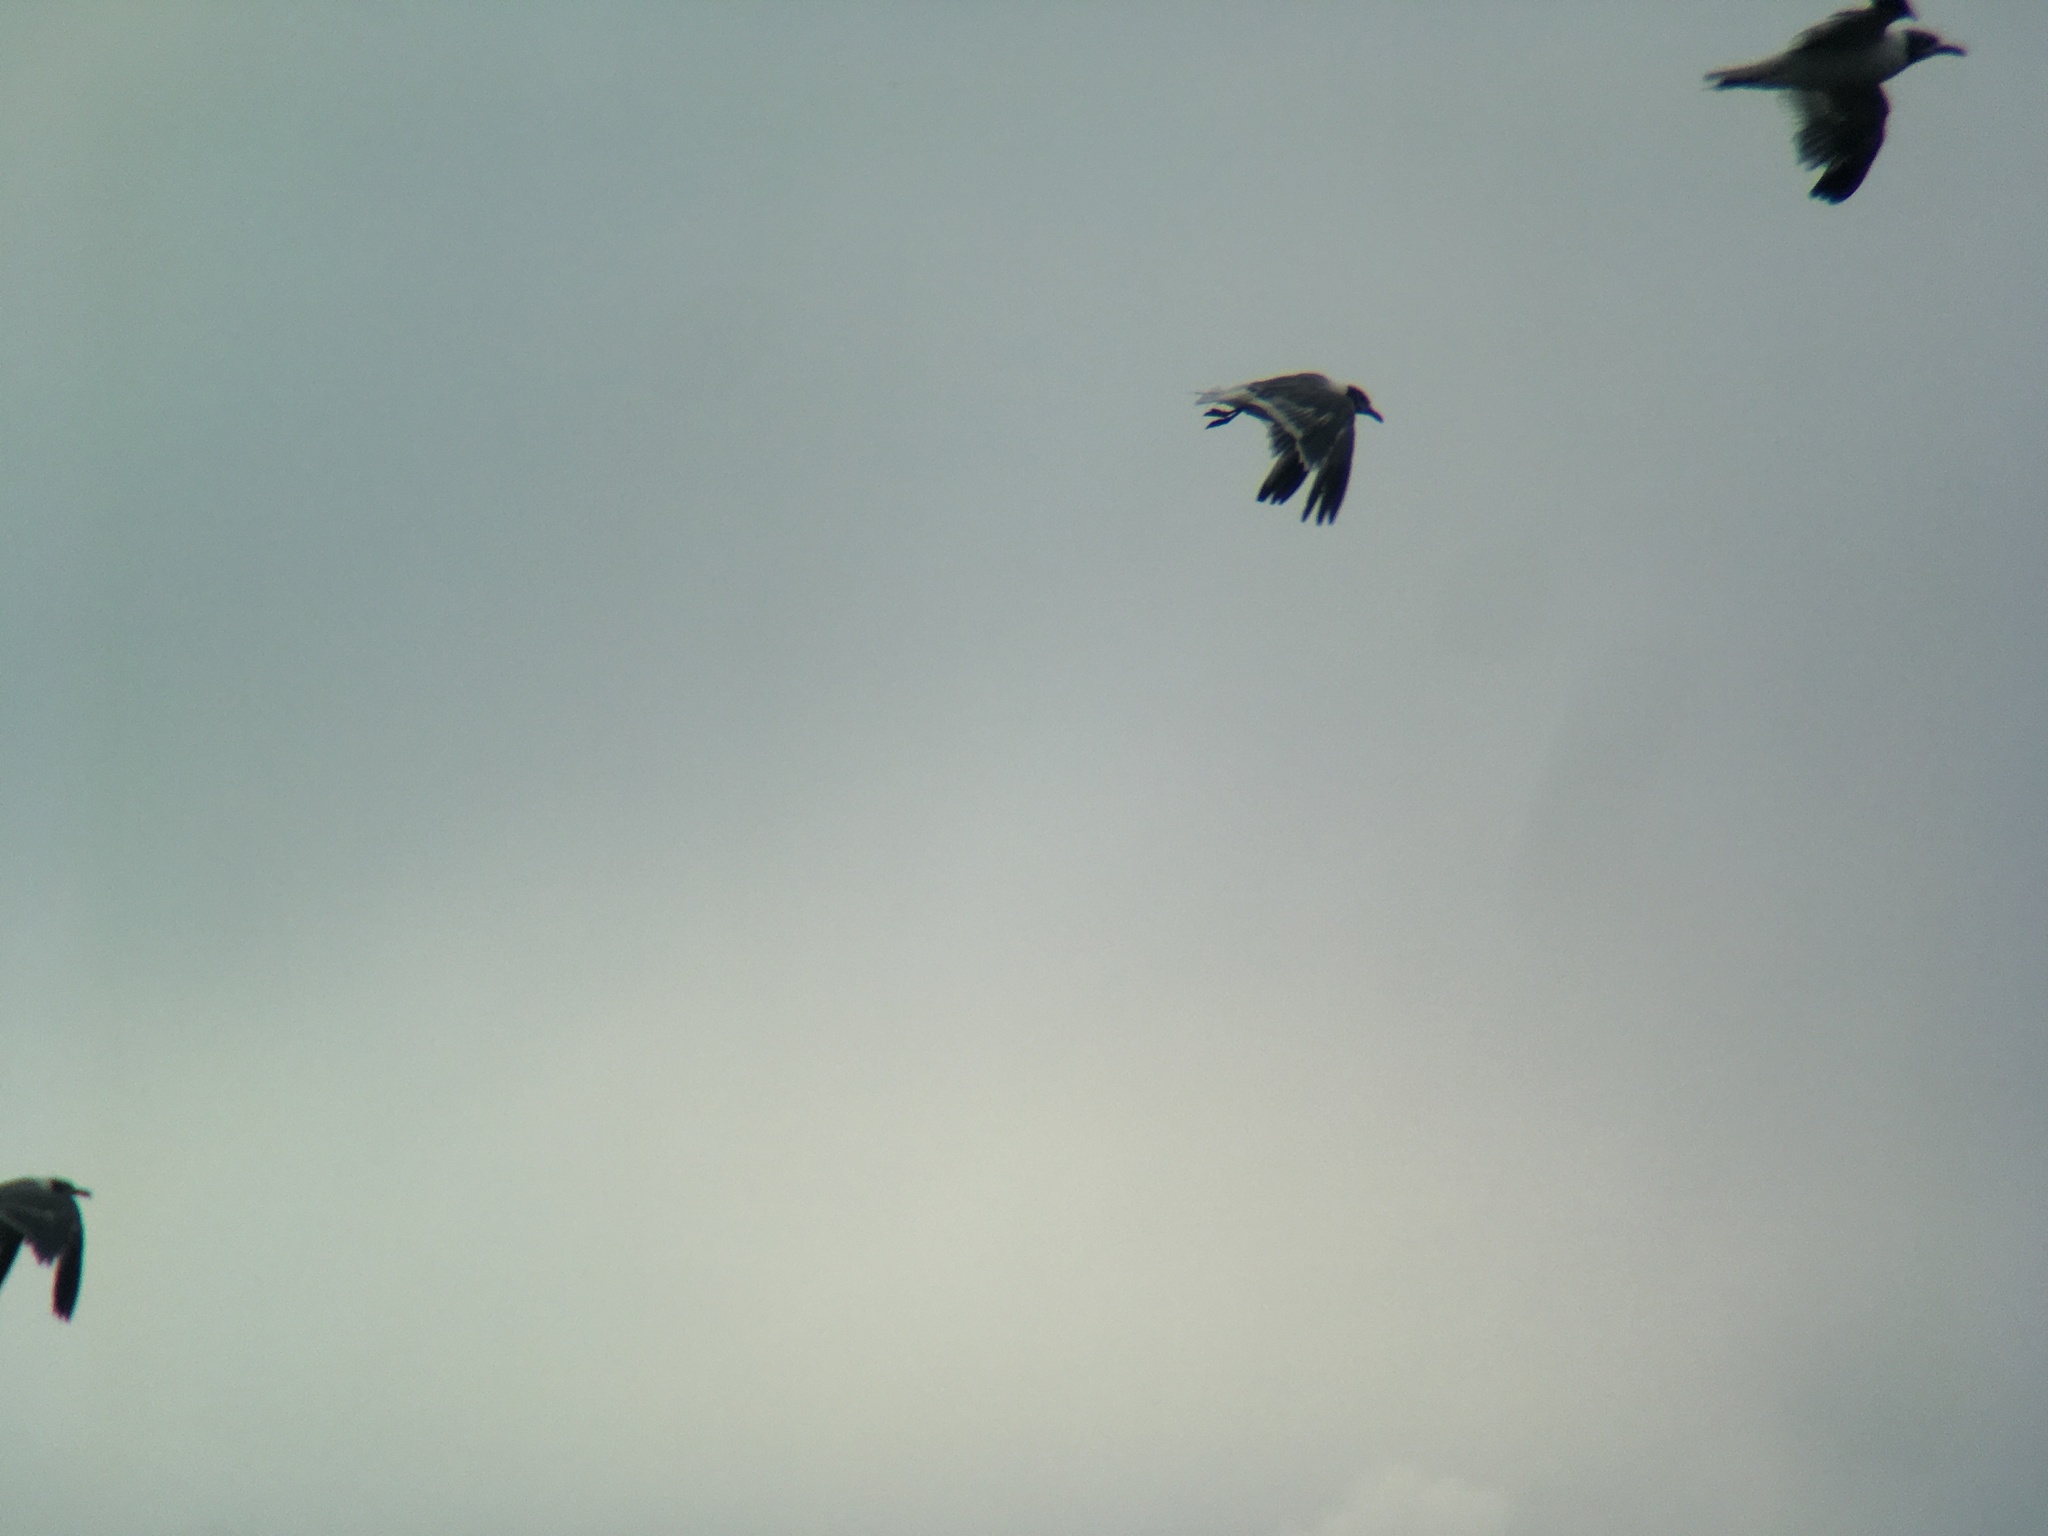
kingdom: Animalia
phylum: Chordata
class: Aves
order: Charadriiformes
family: Laridae
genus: Leucophaeus
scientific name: Leucophaeus atricilla
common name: Laughing gull
